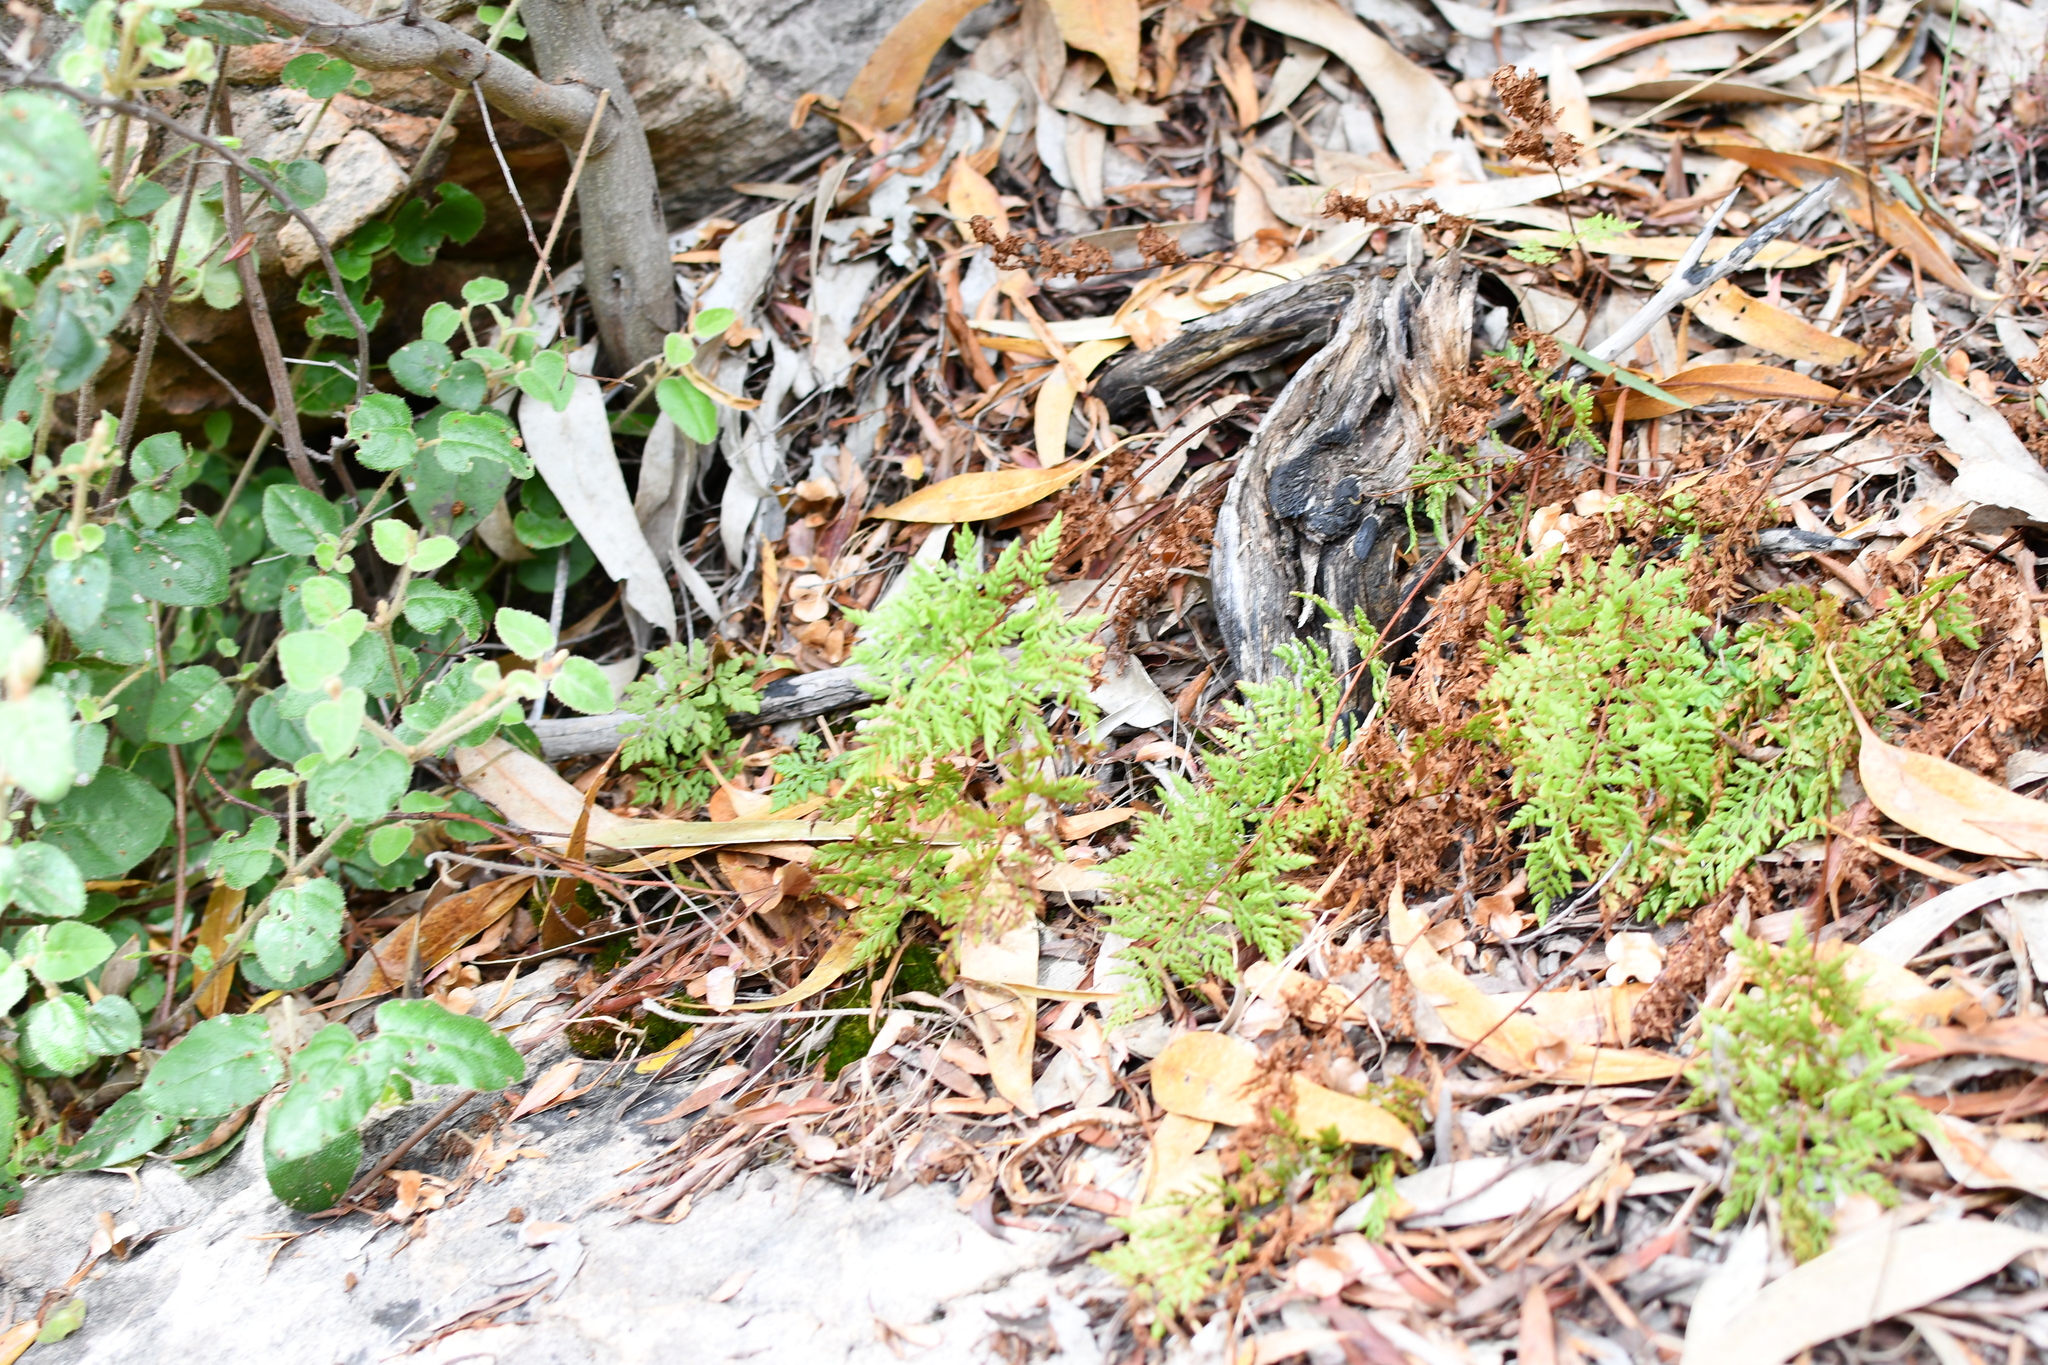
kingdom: Plantae
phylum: Tracheophyta
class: Polypodiopsida
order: Polypodiales
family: Pteridaceae
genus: Cheilanthes
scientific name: Cheilanthes austrotenuifolia
